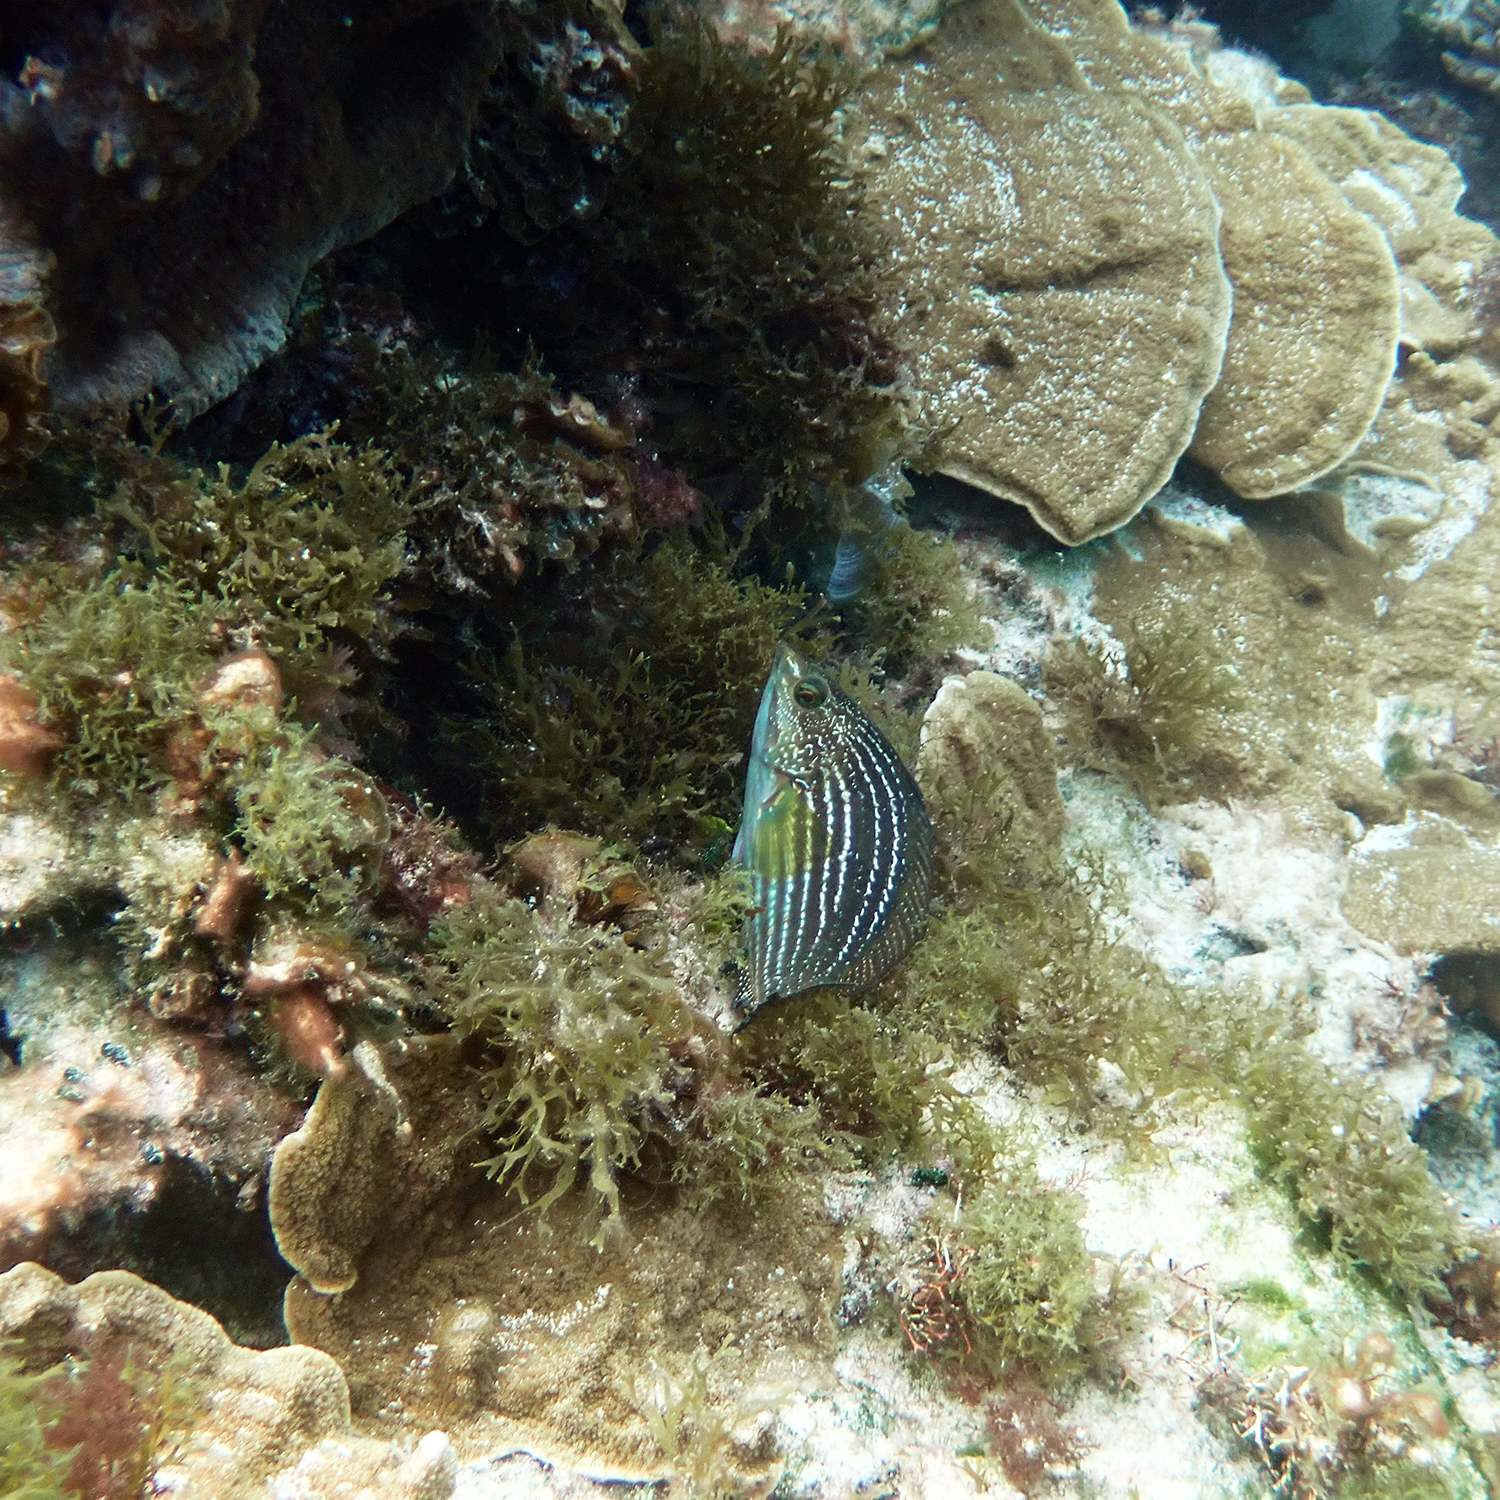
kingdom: Animalia
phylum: Chordata
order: Perciformes
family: Labridae
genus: Notolabrus
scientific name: Notolabrus inscriptus
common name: Green wrasse
